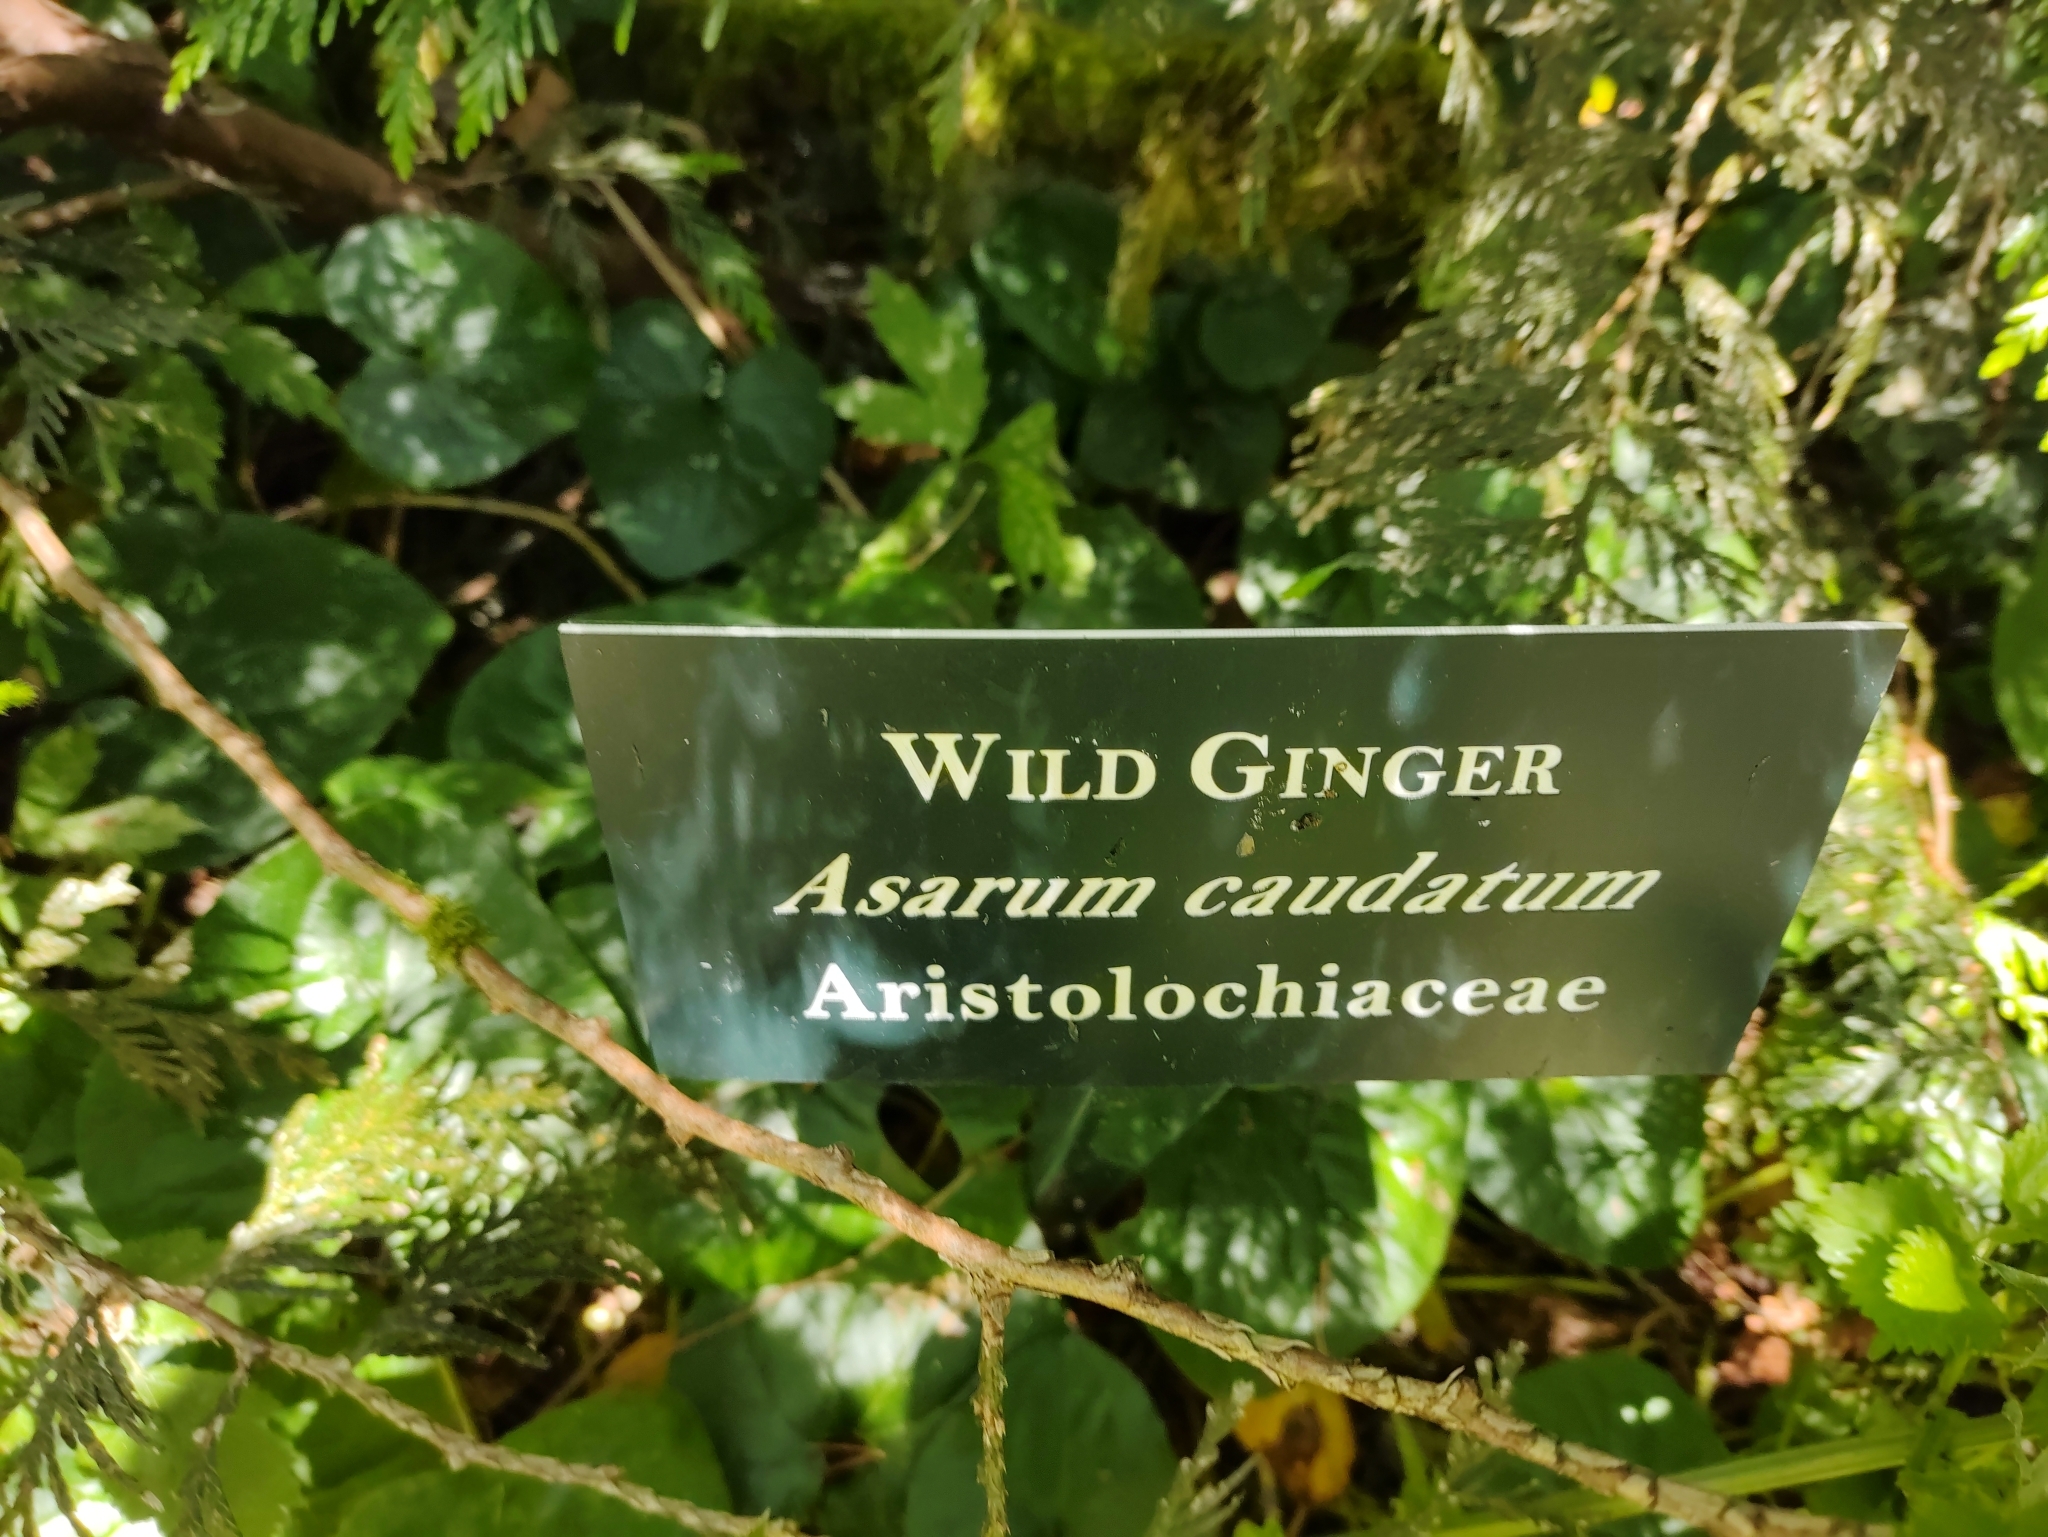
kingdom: Plantae
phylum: Tracheophyta
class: Magnoliopsida
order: Piperales
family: Aristolochiaceae
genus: Asarum
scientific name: Asarum caudatum
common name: Wild ginger
